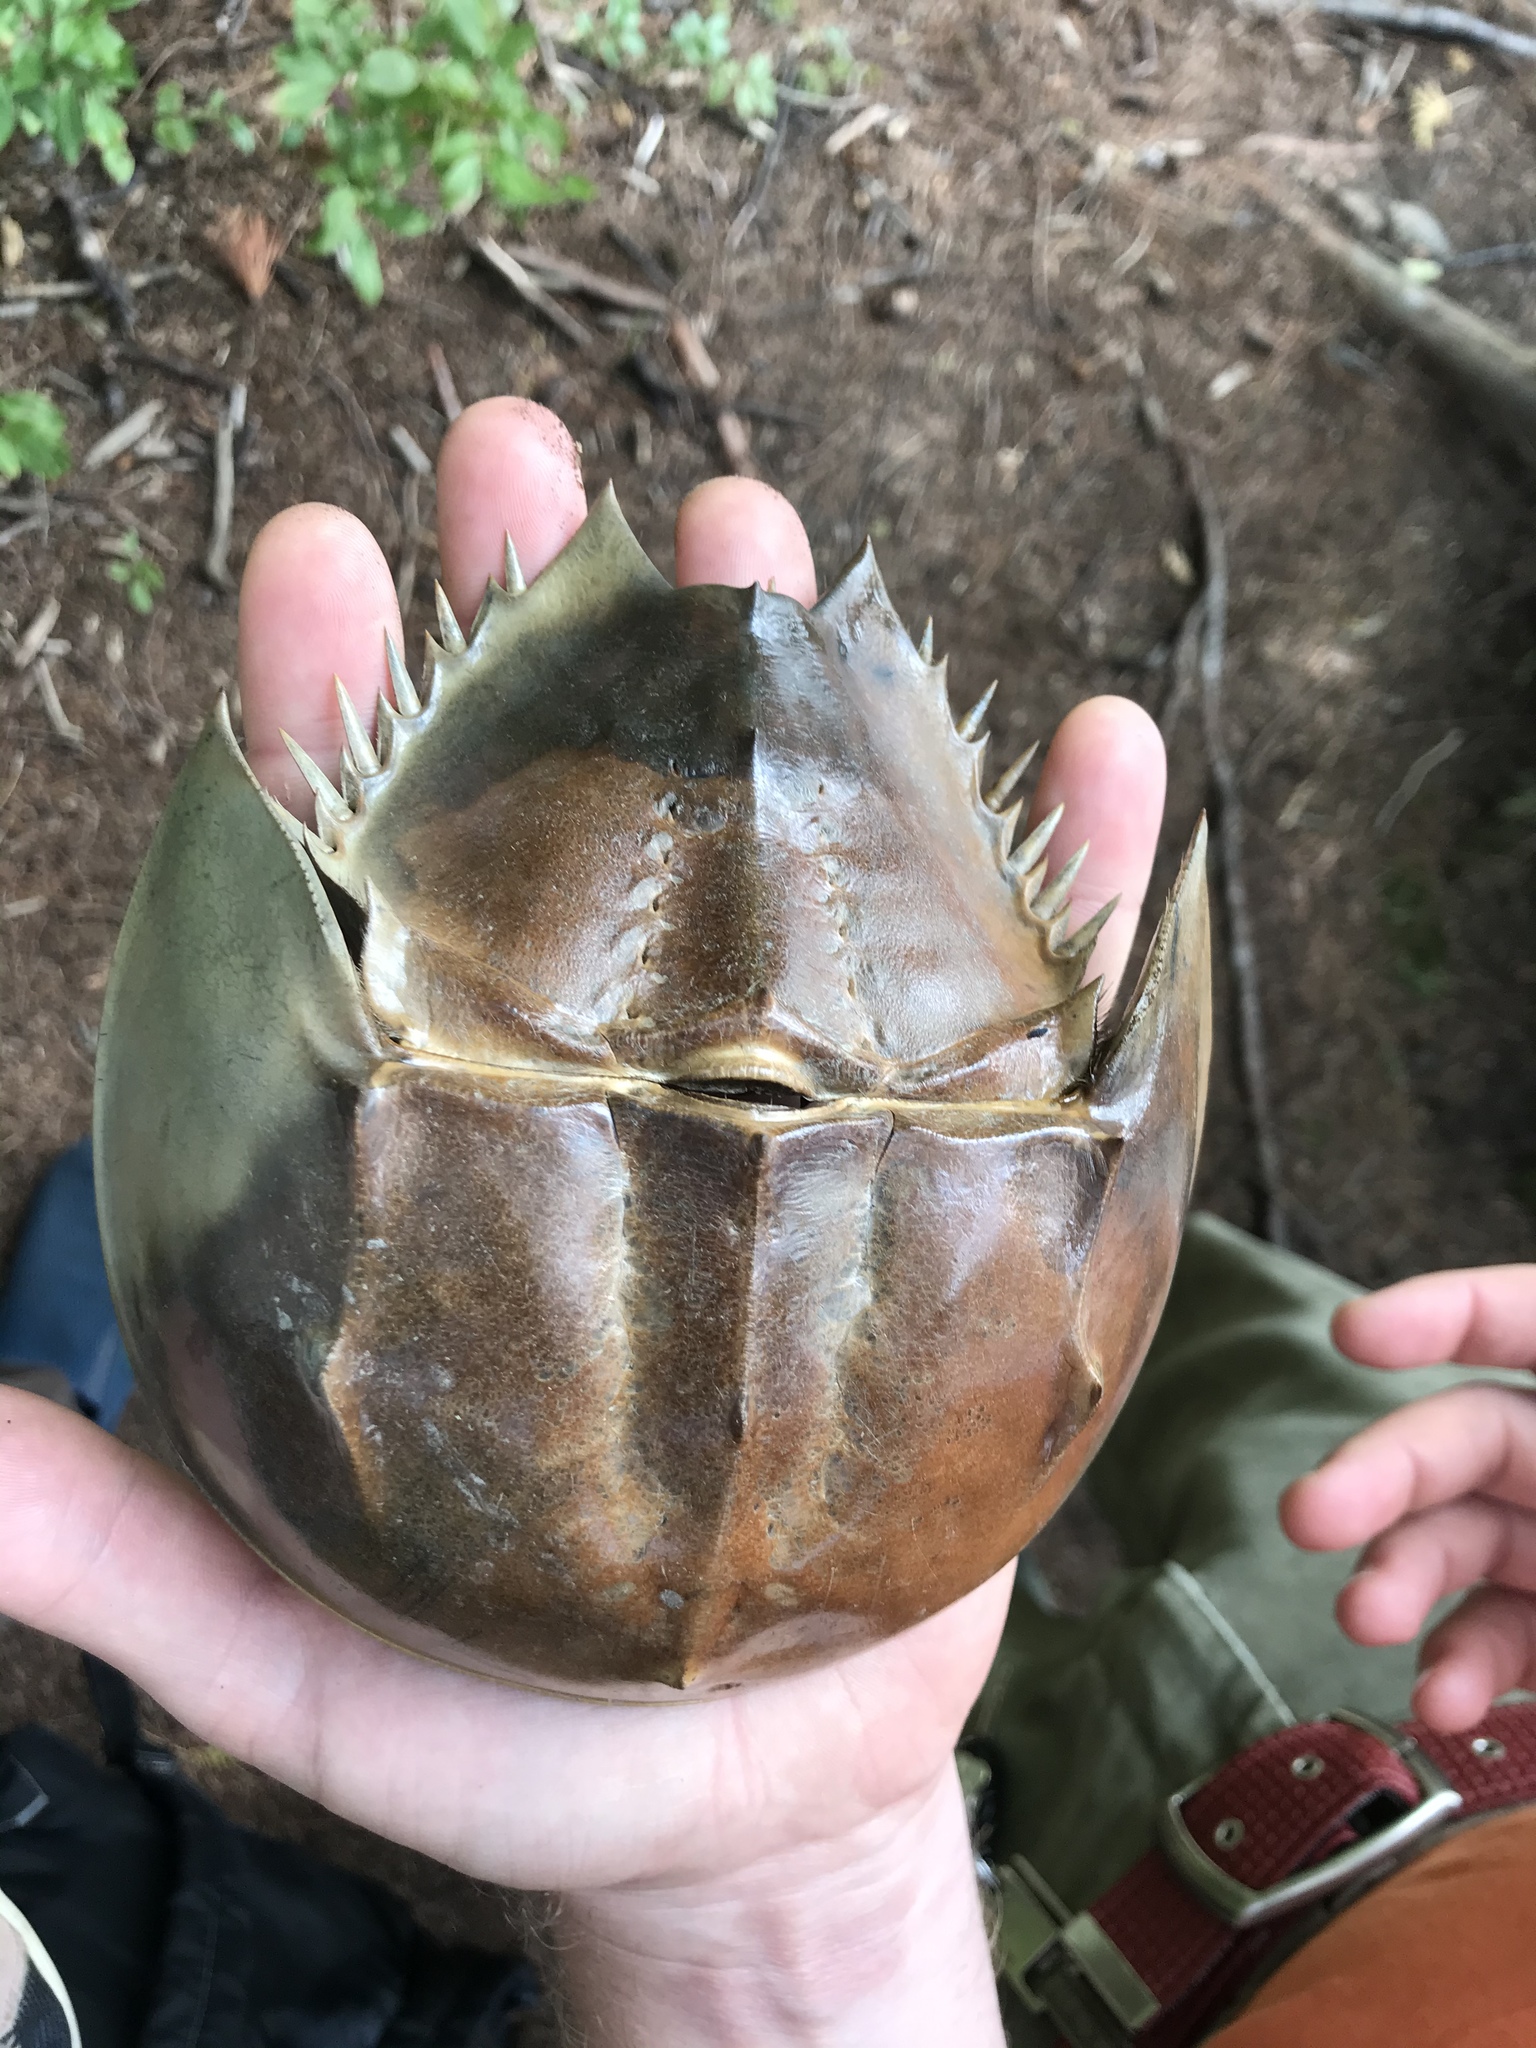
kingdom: Animalia
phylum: Arthropoda
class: Merostomata
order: Xiphosurida
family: Limulidae
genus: Limulus
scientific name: Limulus polyphemus
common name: Horseshoe crab
